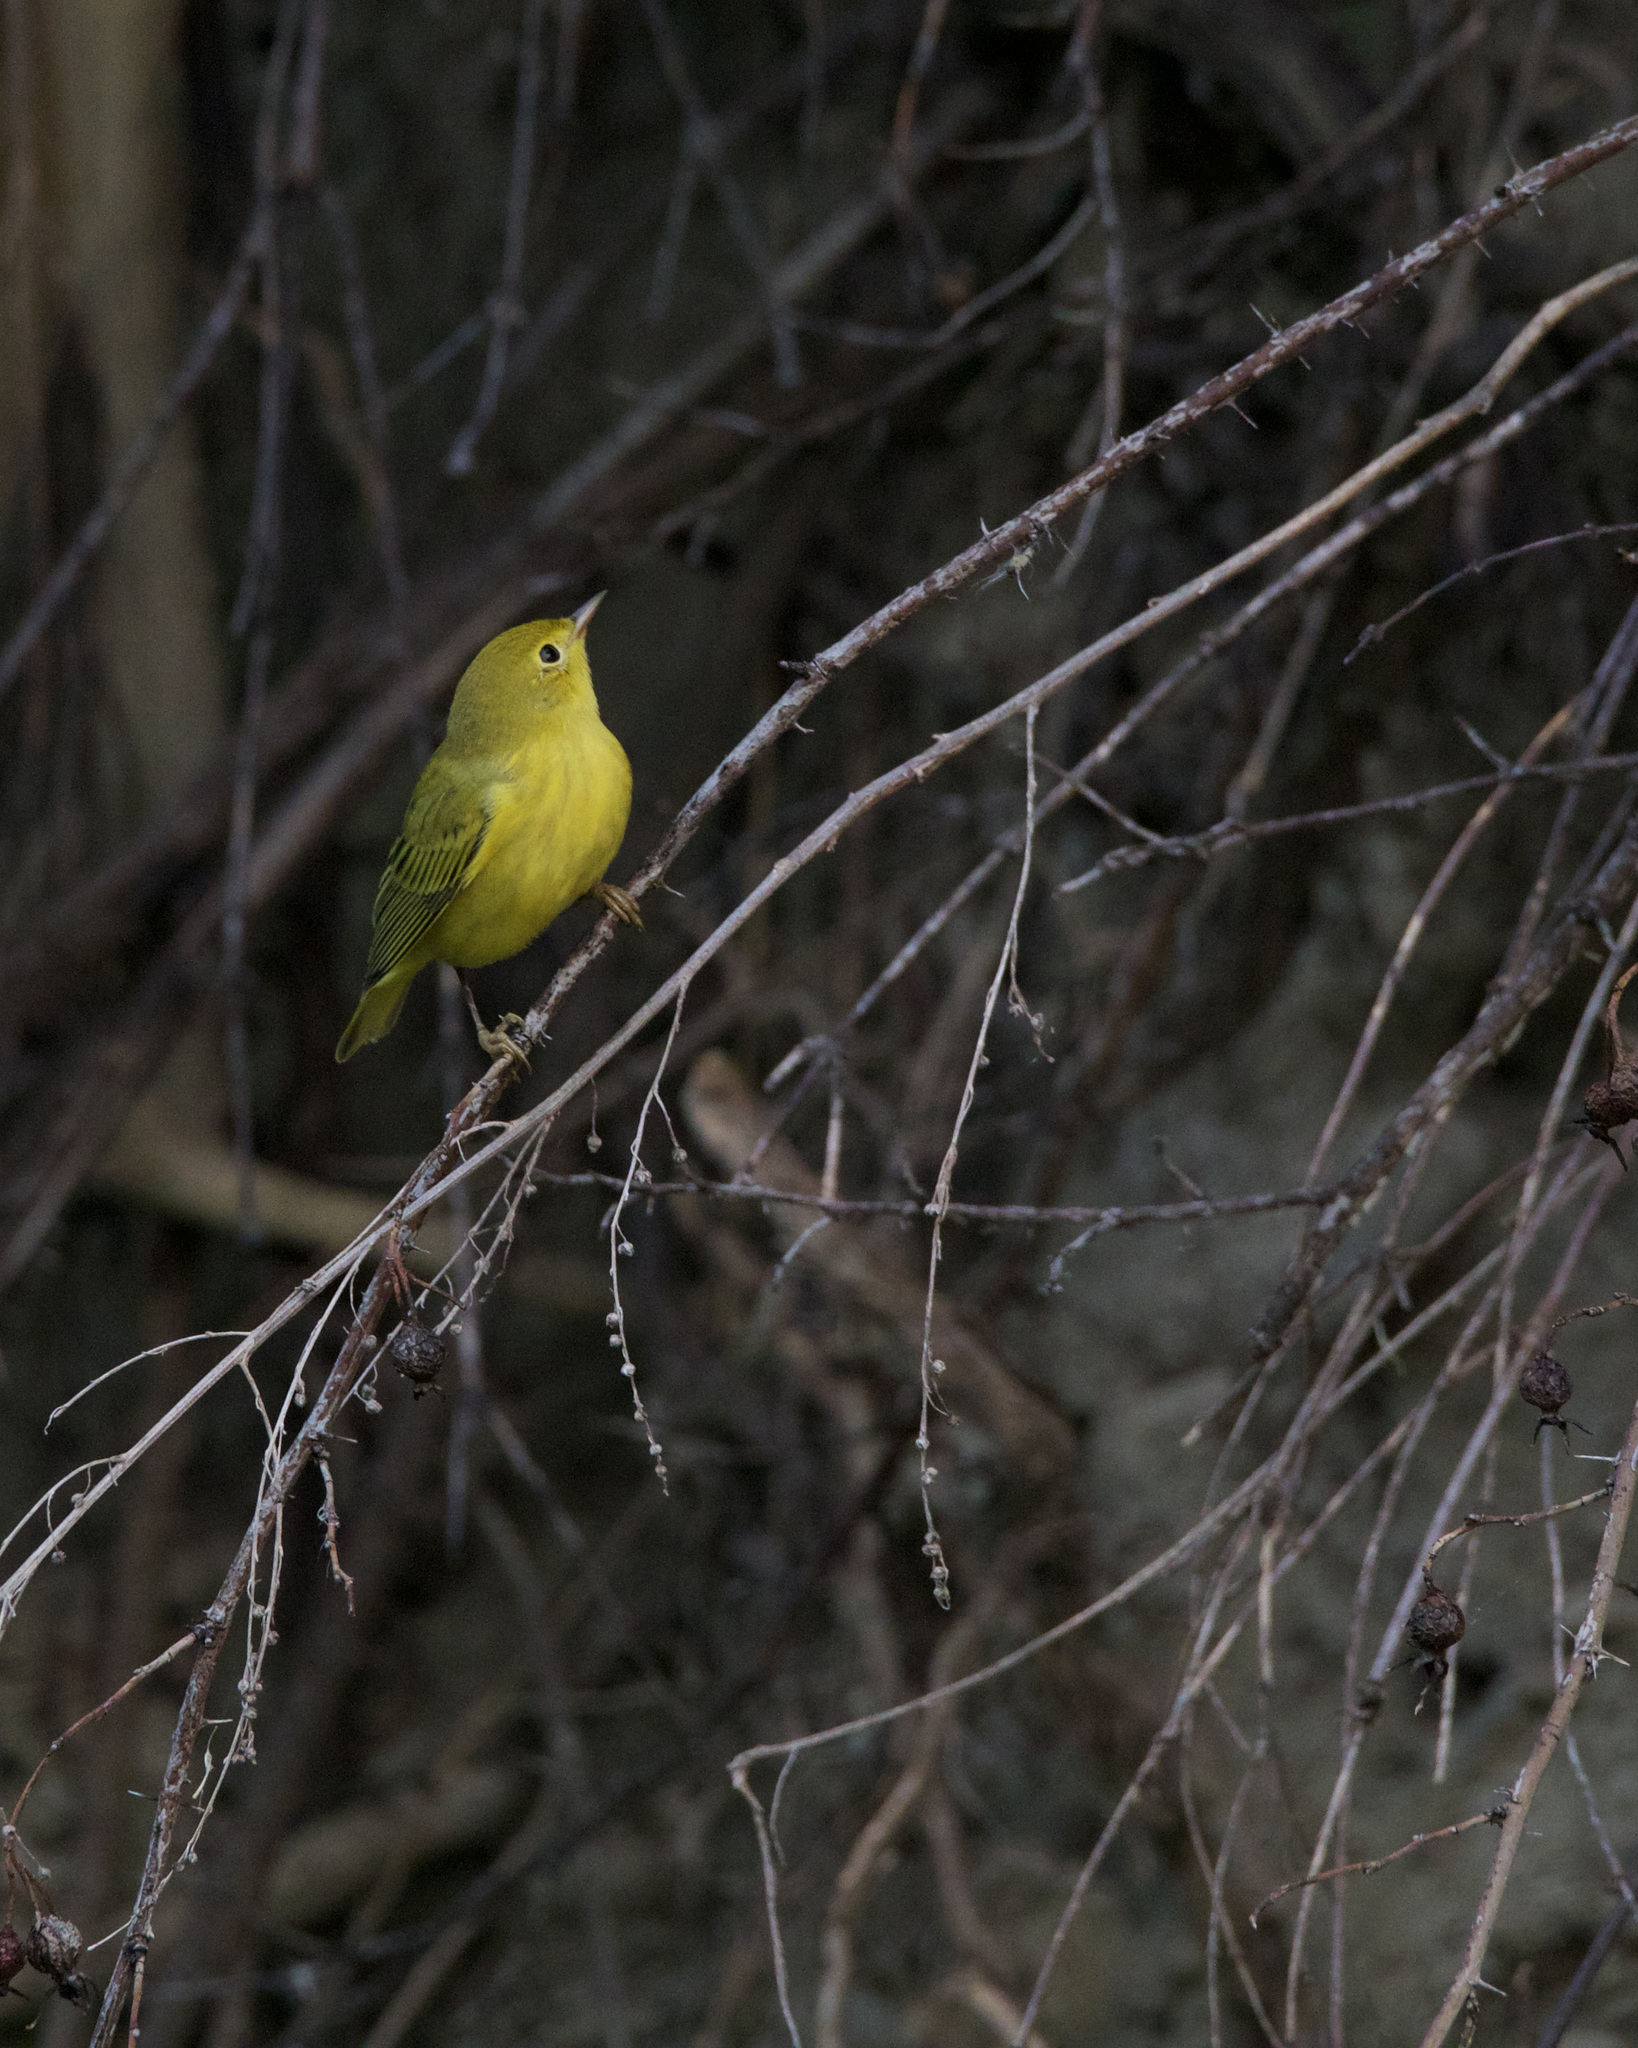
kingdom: Animalia
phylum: Chordata
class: Aves
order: Passeriformes
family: Parulidae
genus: Setophaga
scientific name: Setophaga petechia
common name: Yellow warbler
